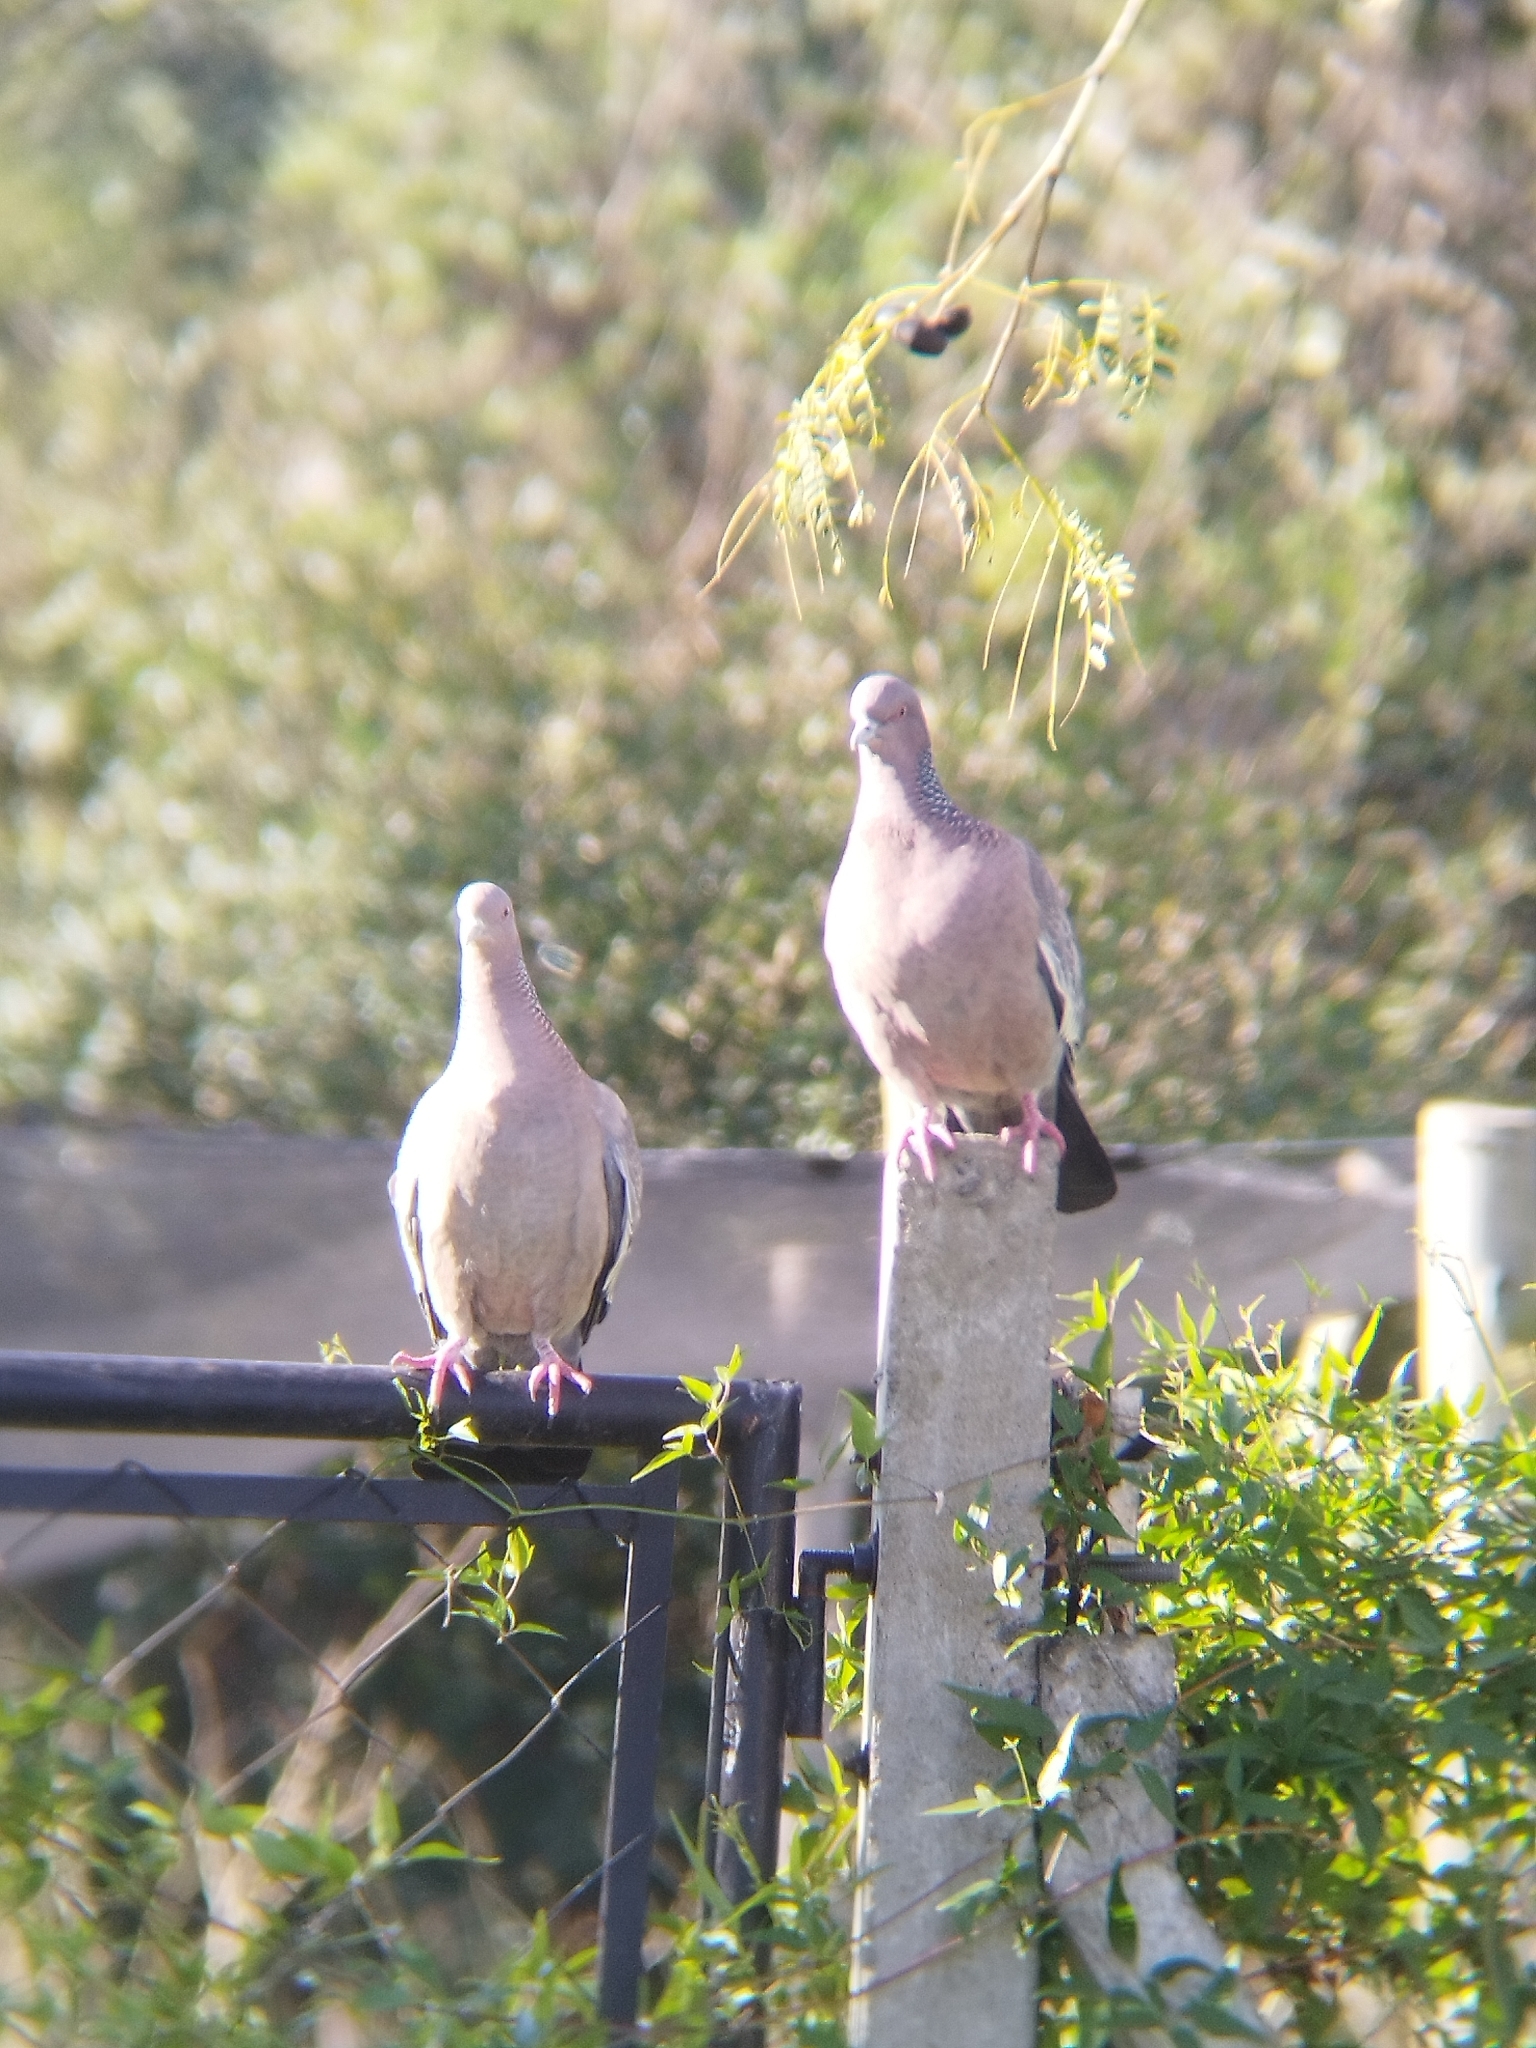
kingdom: Animalia
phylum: Chordata
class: Aves
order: Columbiformes
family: Columbidae
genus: Patagioenas
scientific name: Patagioenas picazuro
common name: Picazuro pigeon
